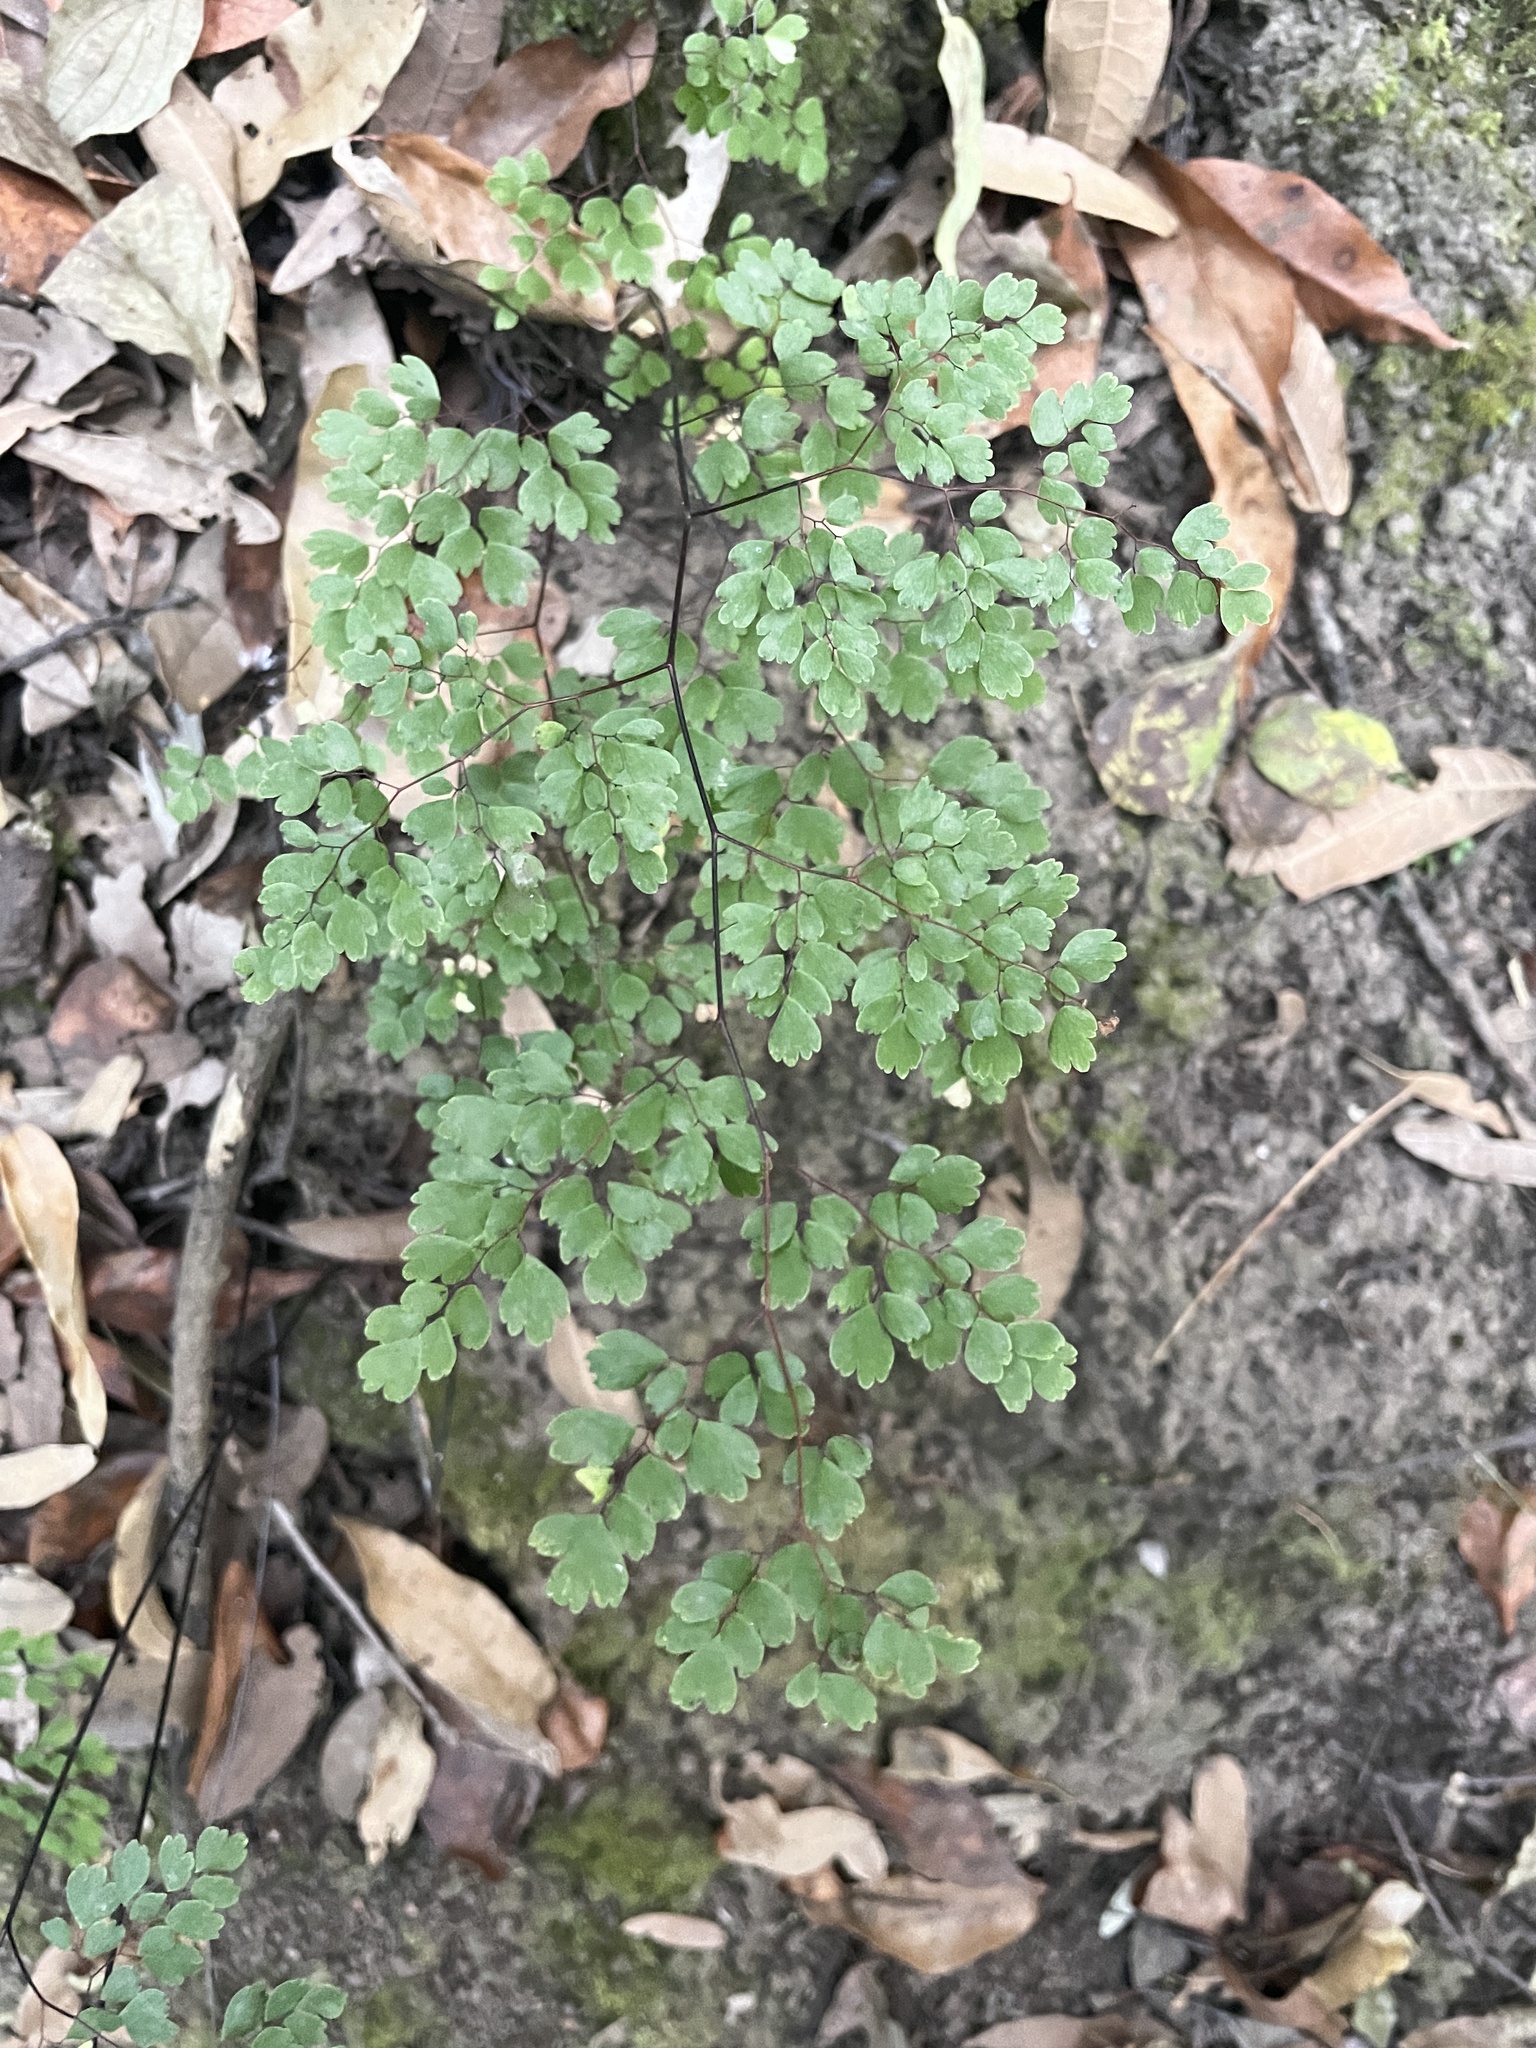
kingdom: Plantae
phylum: Tracheophyta
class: Polypodiopsida
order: Polypodiales
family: Pteridaceae
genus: Adiantum
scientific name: Adiantum andicola
